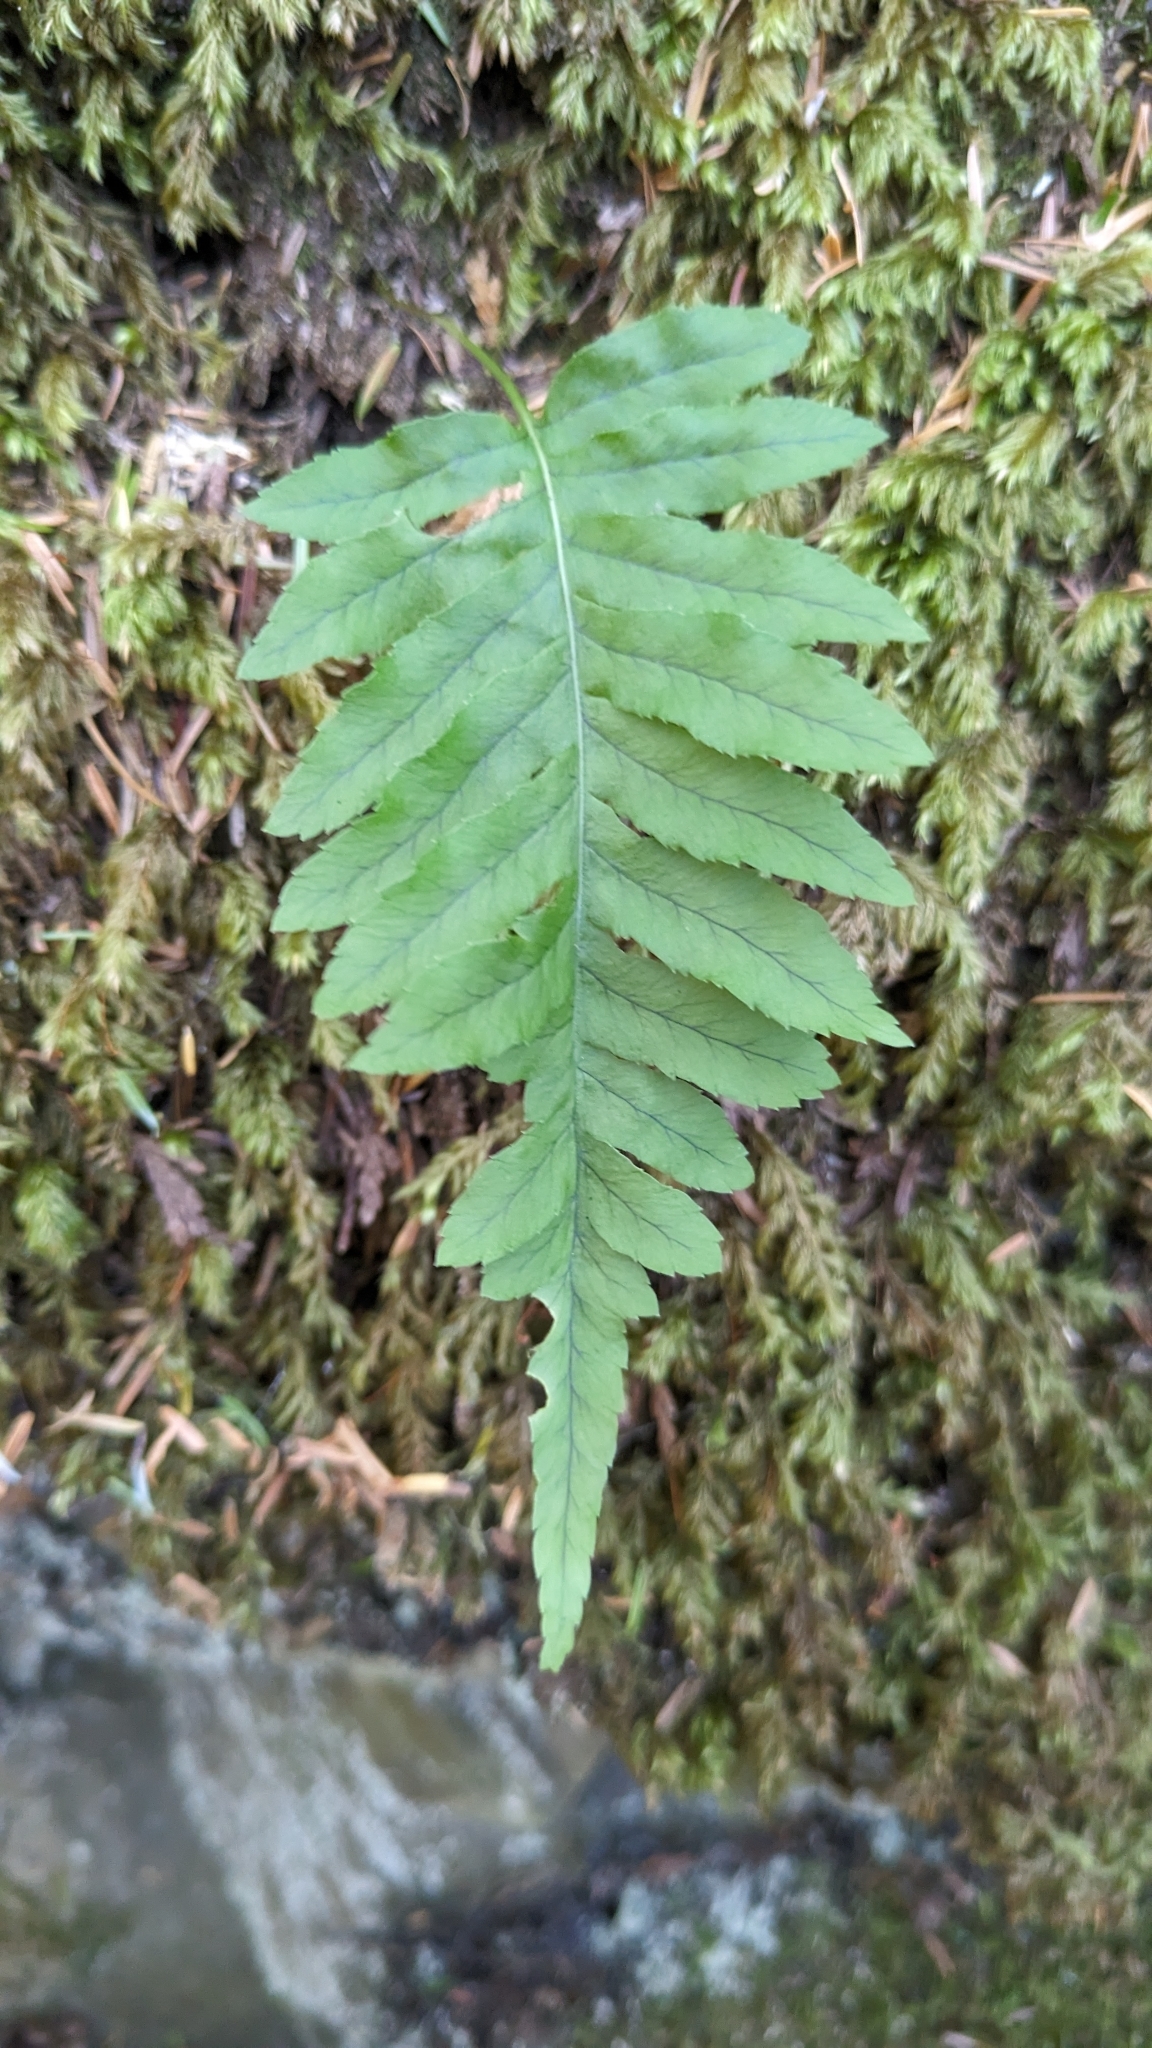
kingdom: Plantae
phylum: Tracheophyta
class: Polypodiopsida
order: Polypodiales
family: Polypodiaceae
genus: Polypodium
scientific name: Polypodium glycyrrhiza
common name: Licorice fern
